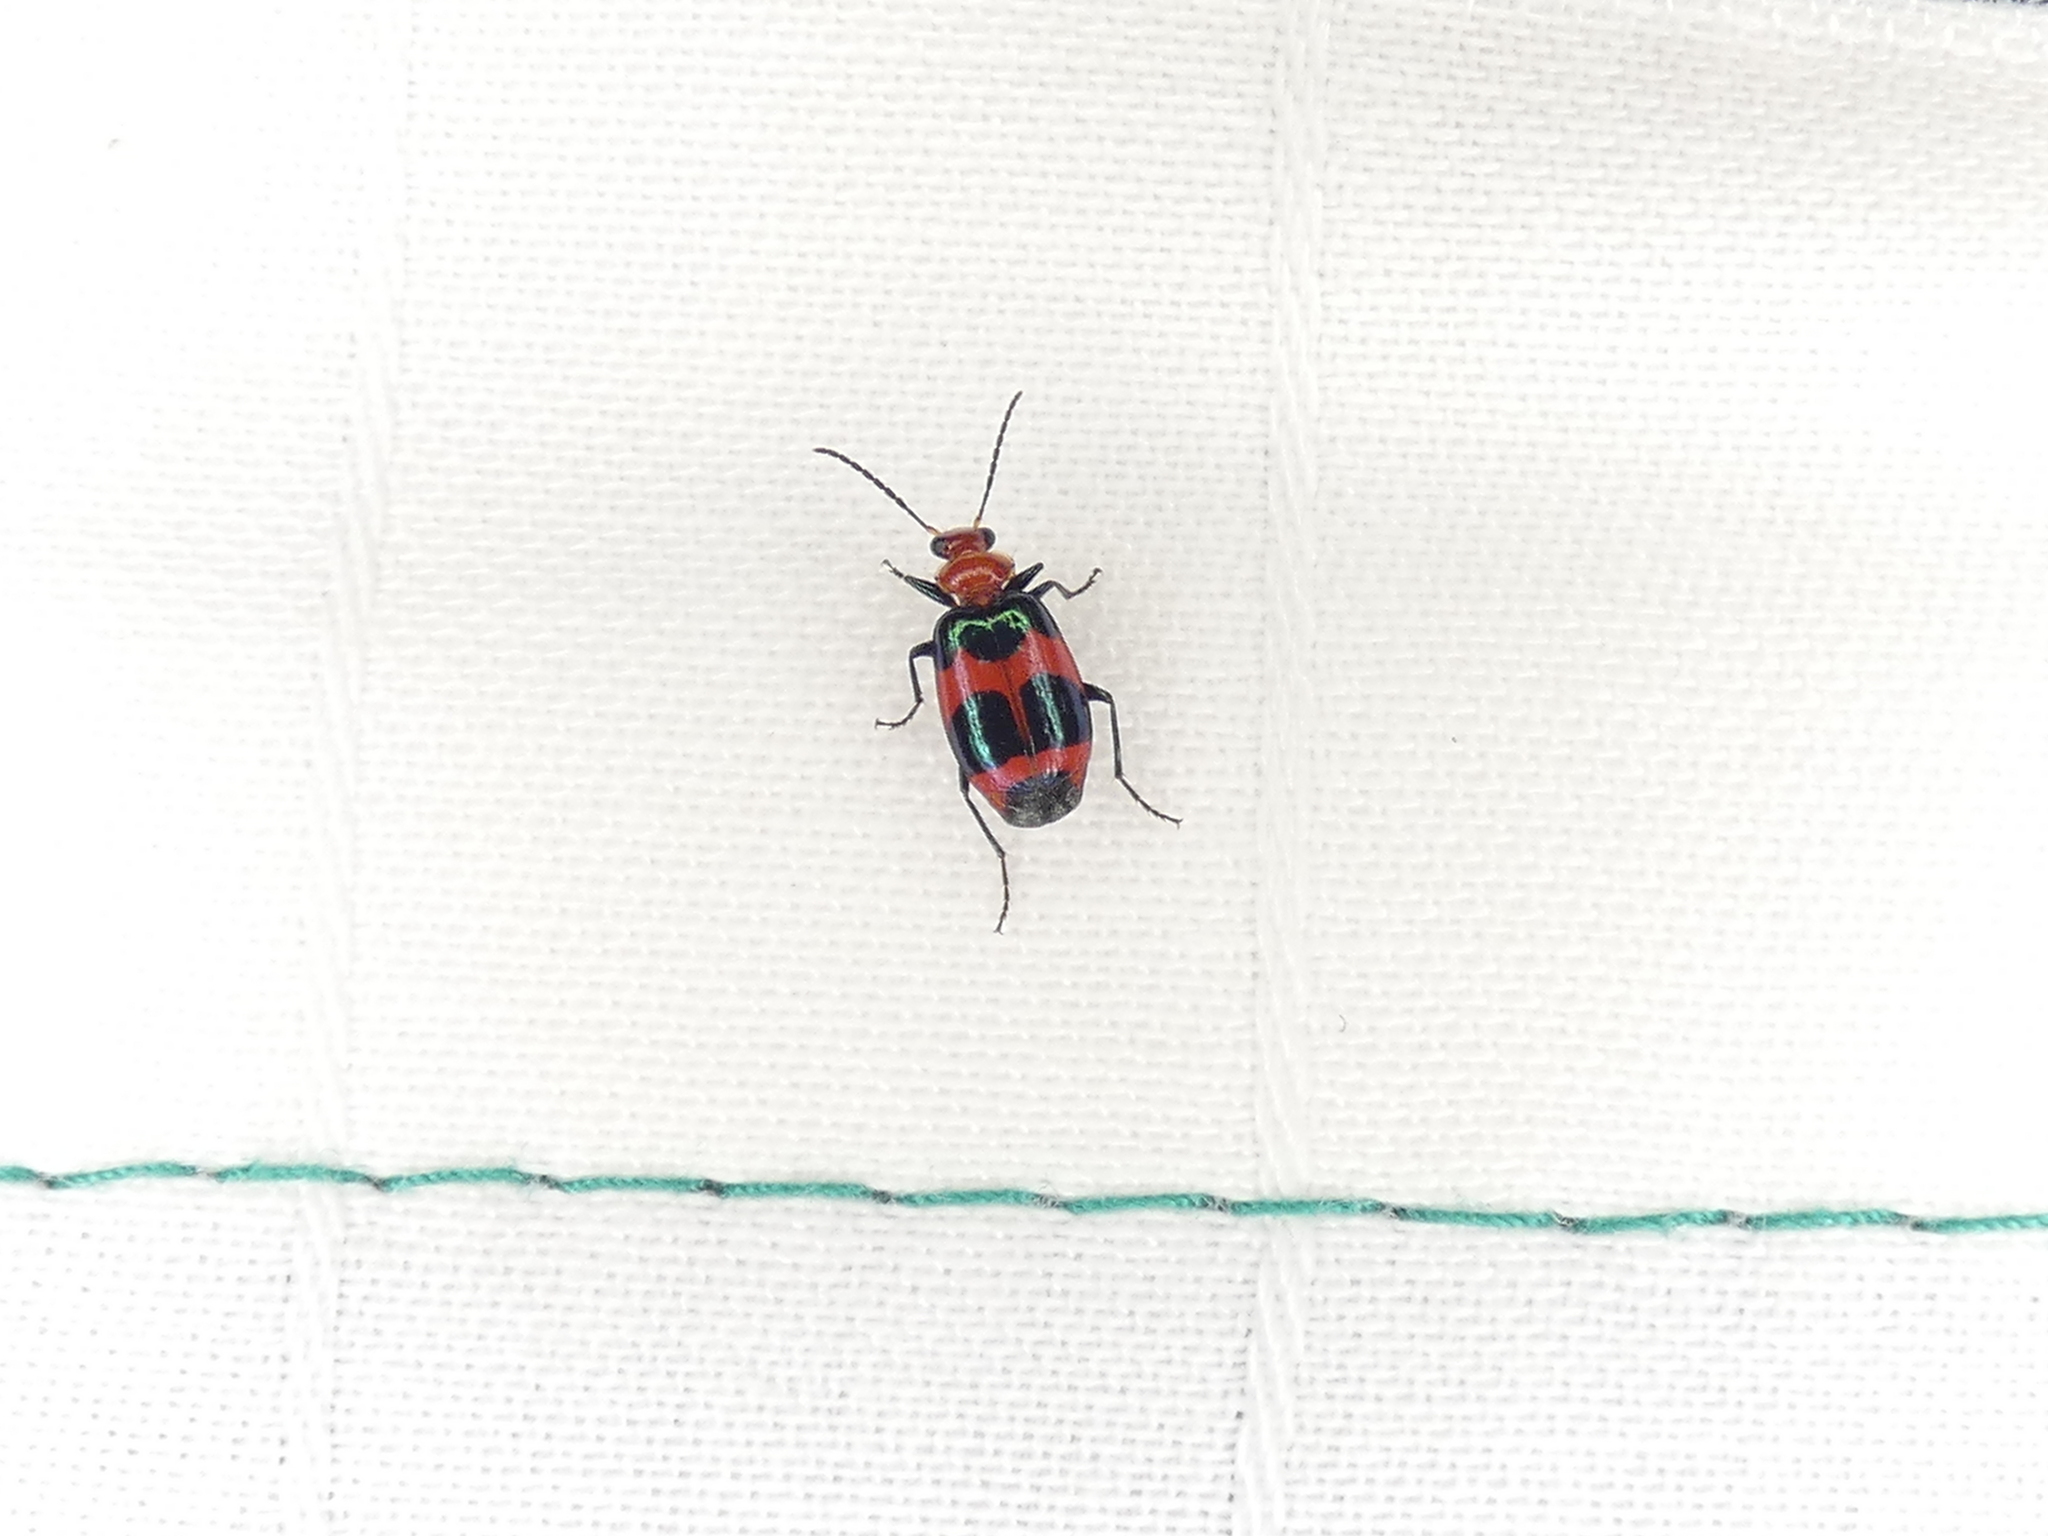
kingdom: Animalia
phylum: Arthropoda
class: Insecta
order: Coleoptera
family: Carabidae
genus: Lebia
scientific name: Lebia bitaeniata
